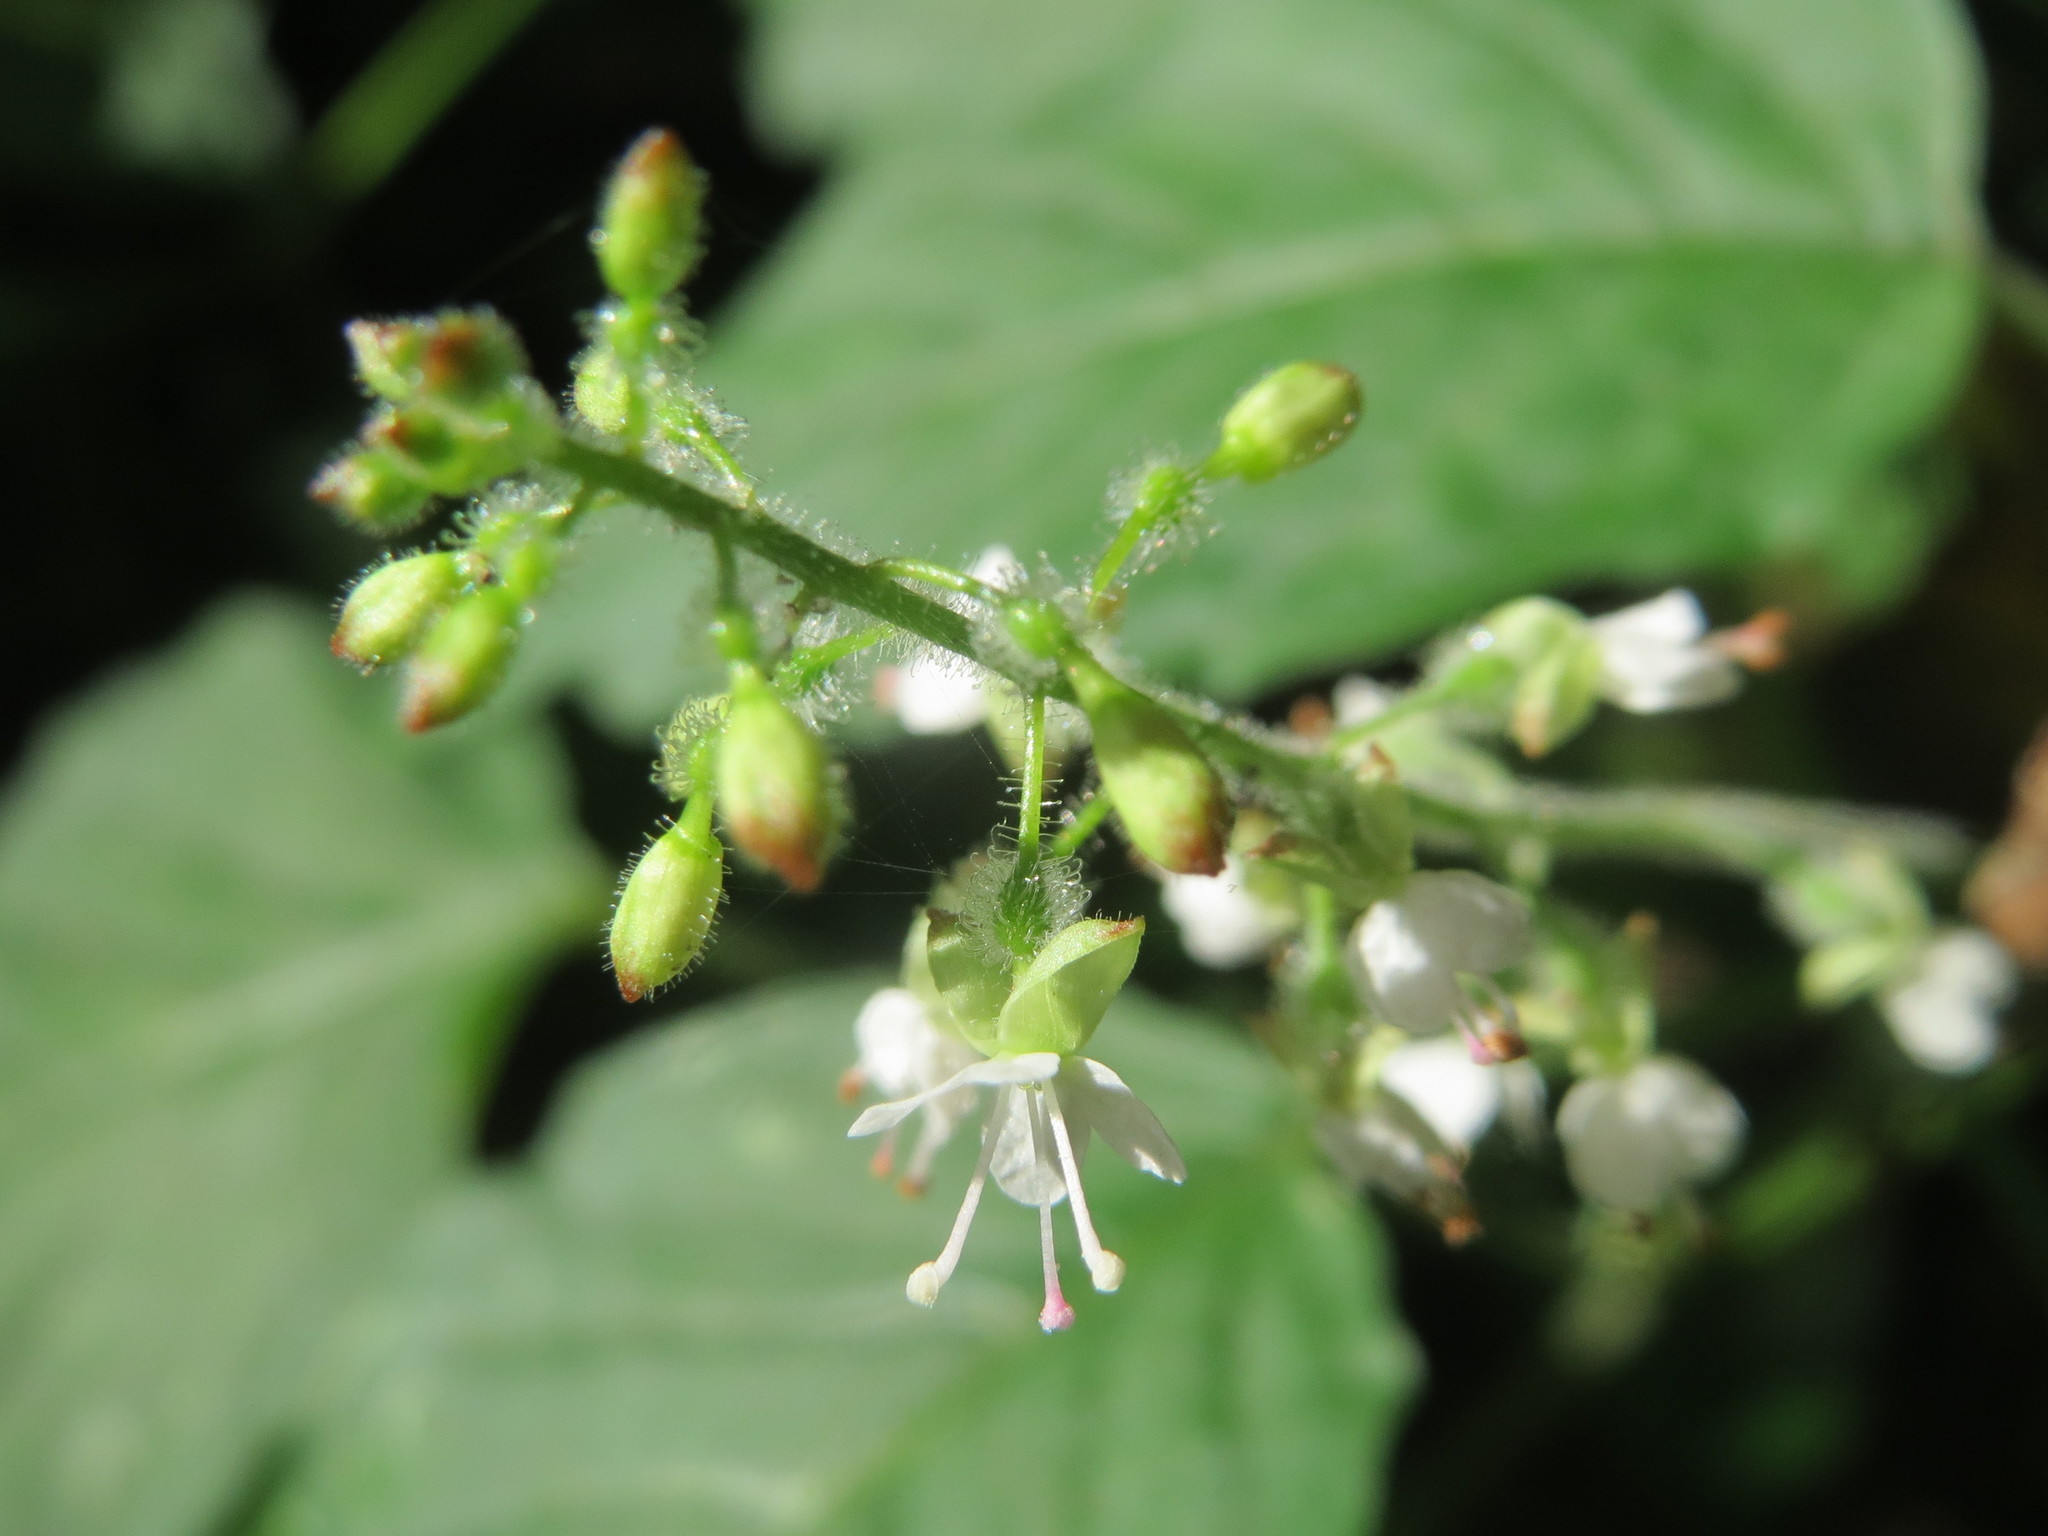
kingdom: Plantae
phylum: Tracheophyta
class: Magnoliopsida
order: Myrtales
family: Onagraceae
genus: Circaea
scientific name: Circaea lutetiana
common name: Enchanter's-nightshade
